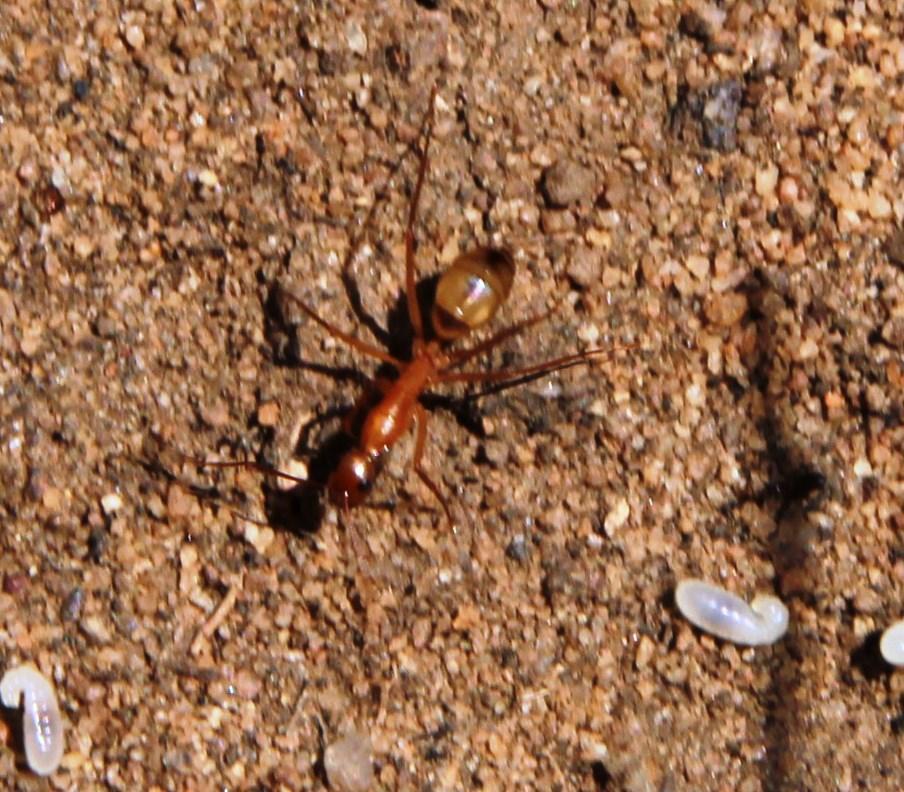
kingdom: Animalia
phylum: Arthropoda
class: Insecta
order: Hymenoptera
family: Formicidae
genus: Camponotus
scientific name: Camponotus maculatus
